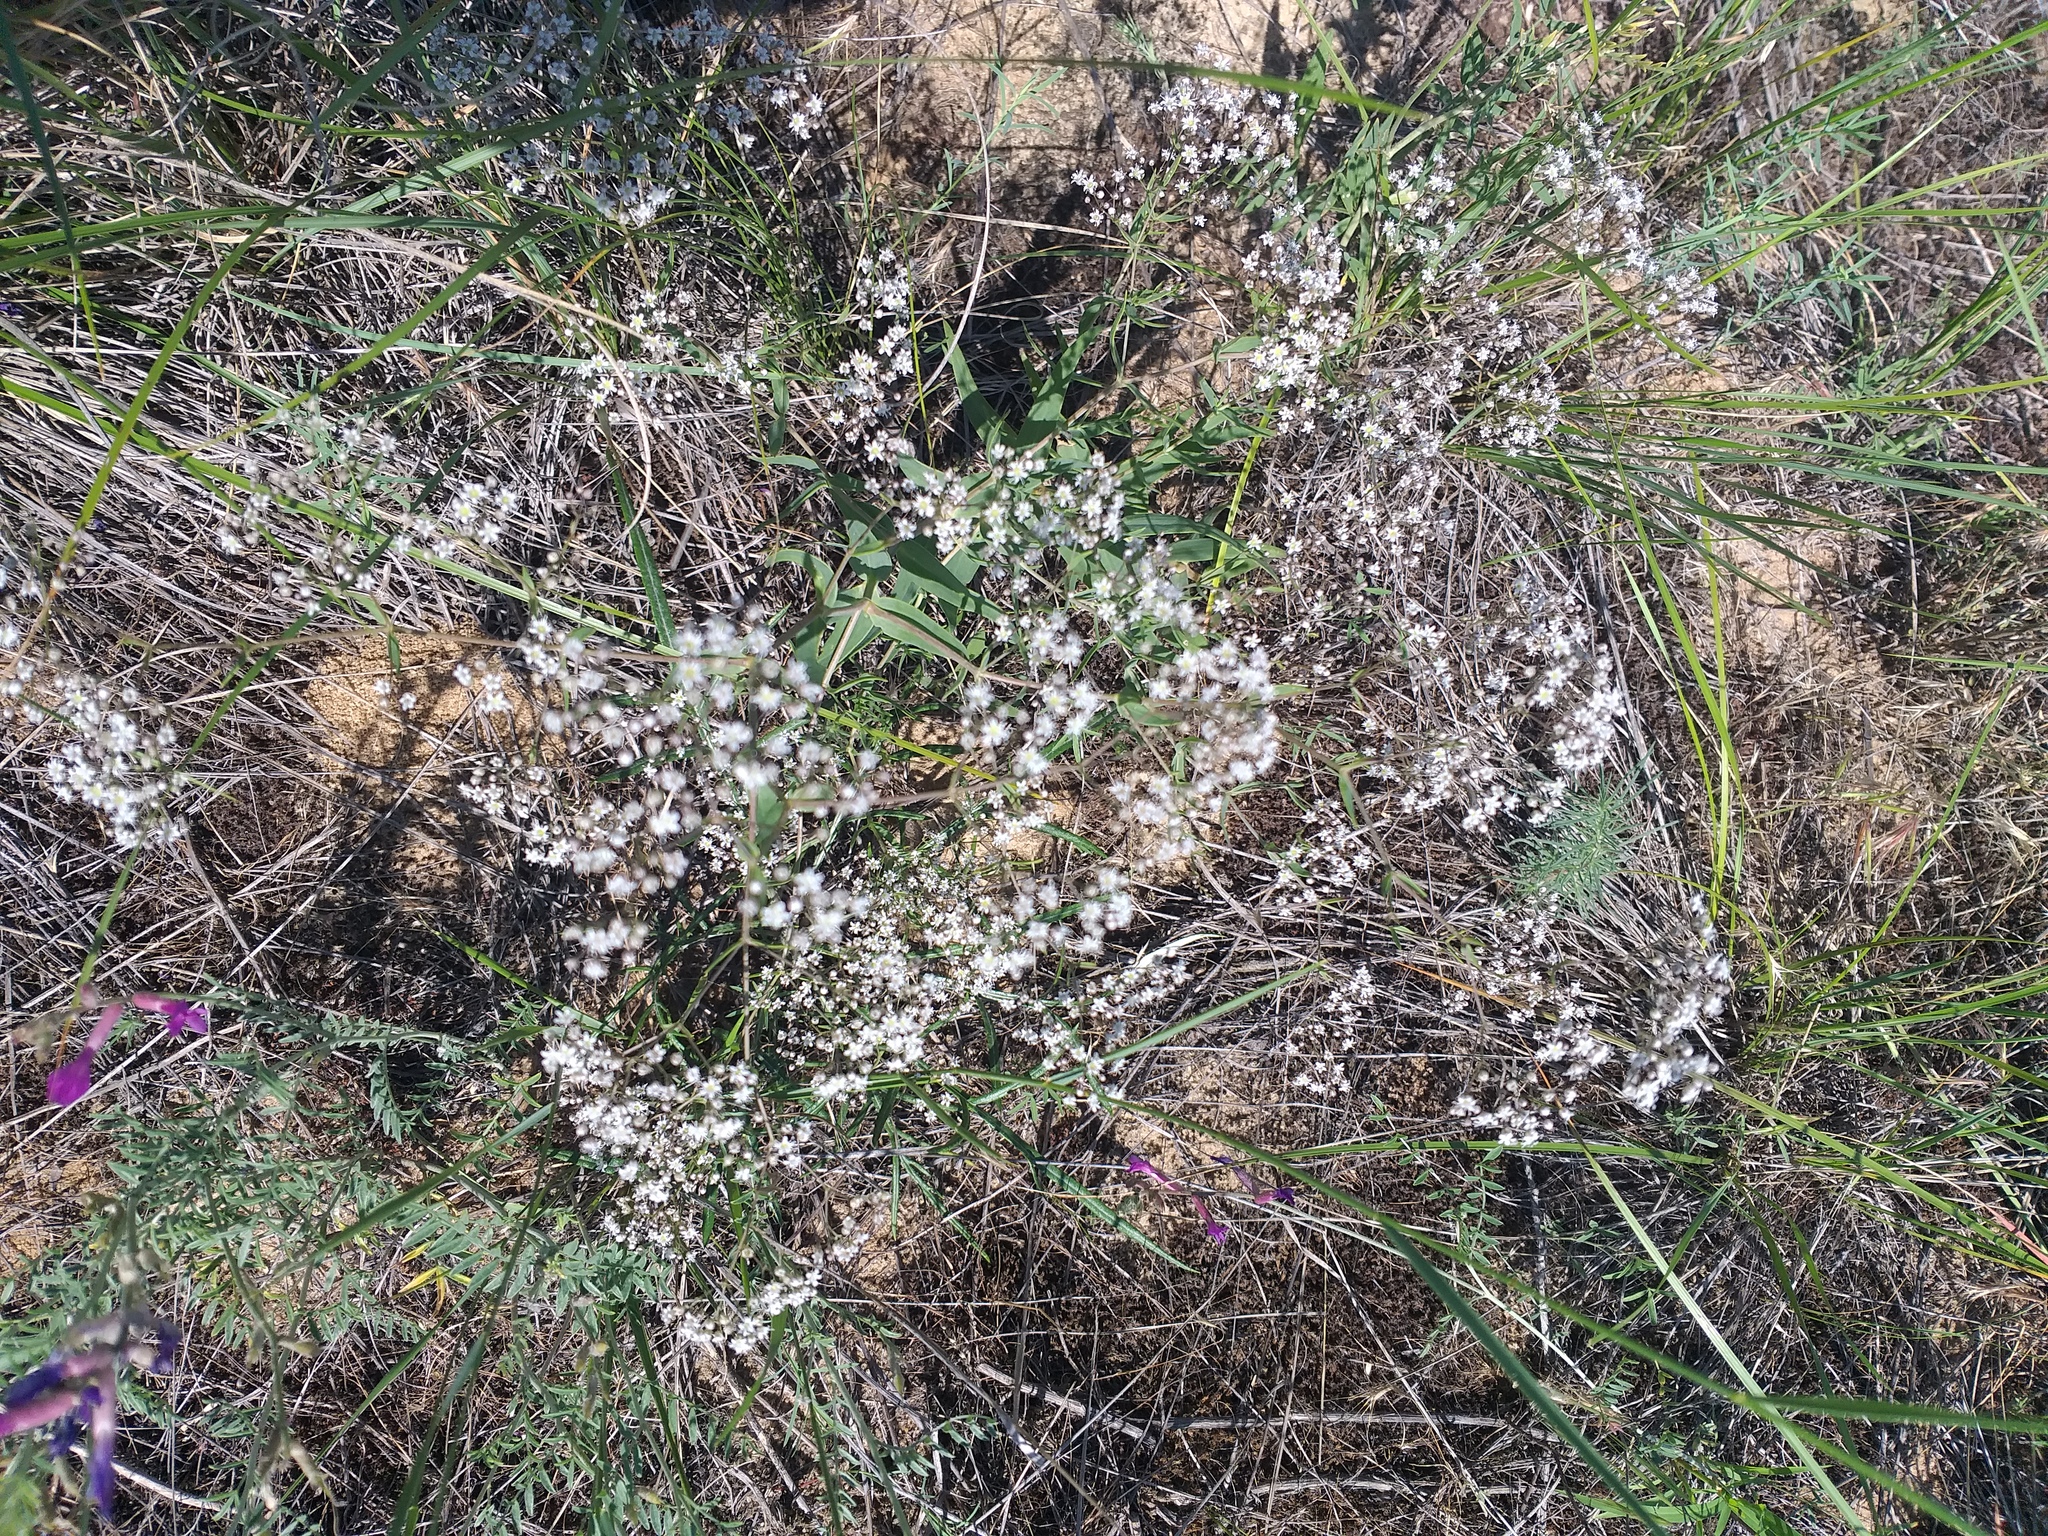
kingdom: Plantae
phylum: Tracheophyta
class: Magnoliopsida
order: Caryophyllales
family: Caryophyllaceae
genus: Gypsophila
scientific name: Gypsophila paniculata
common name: Baby's-breath
